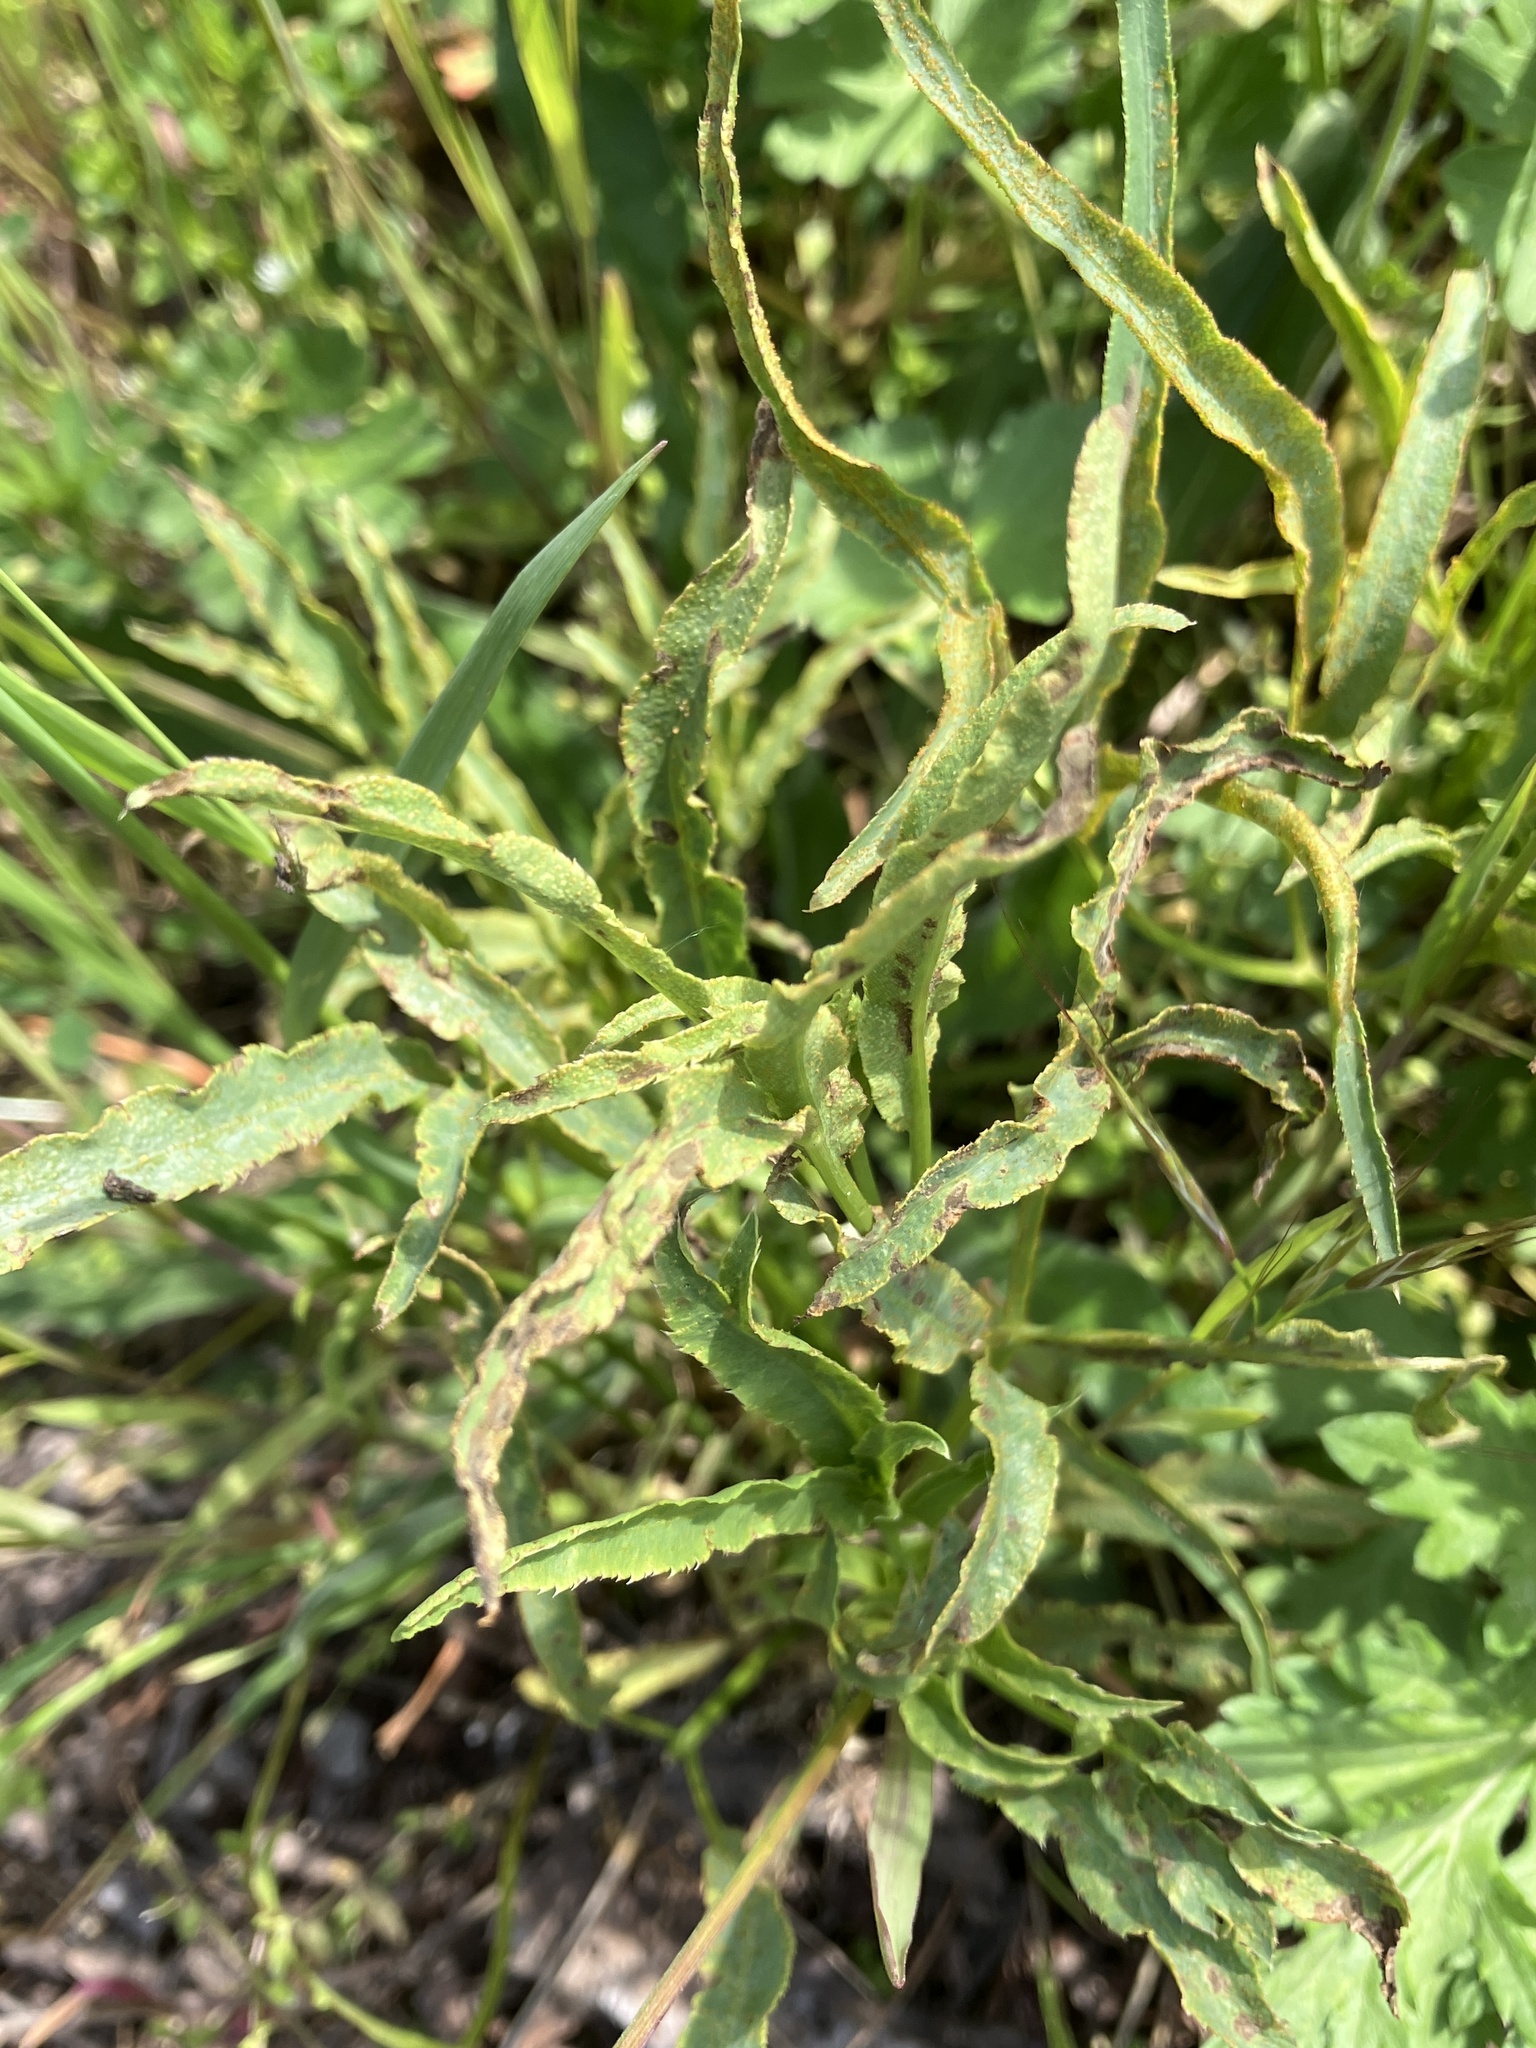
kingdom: Plantae
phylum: Tracheophyta
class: Magnoliopsida
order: Apiales
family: Apiaceae
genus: Falcaria
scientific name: Falcaria vulgaris
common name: Longleaf
